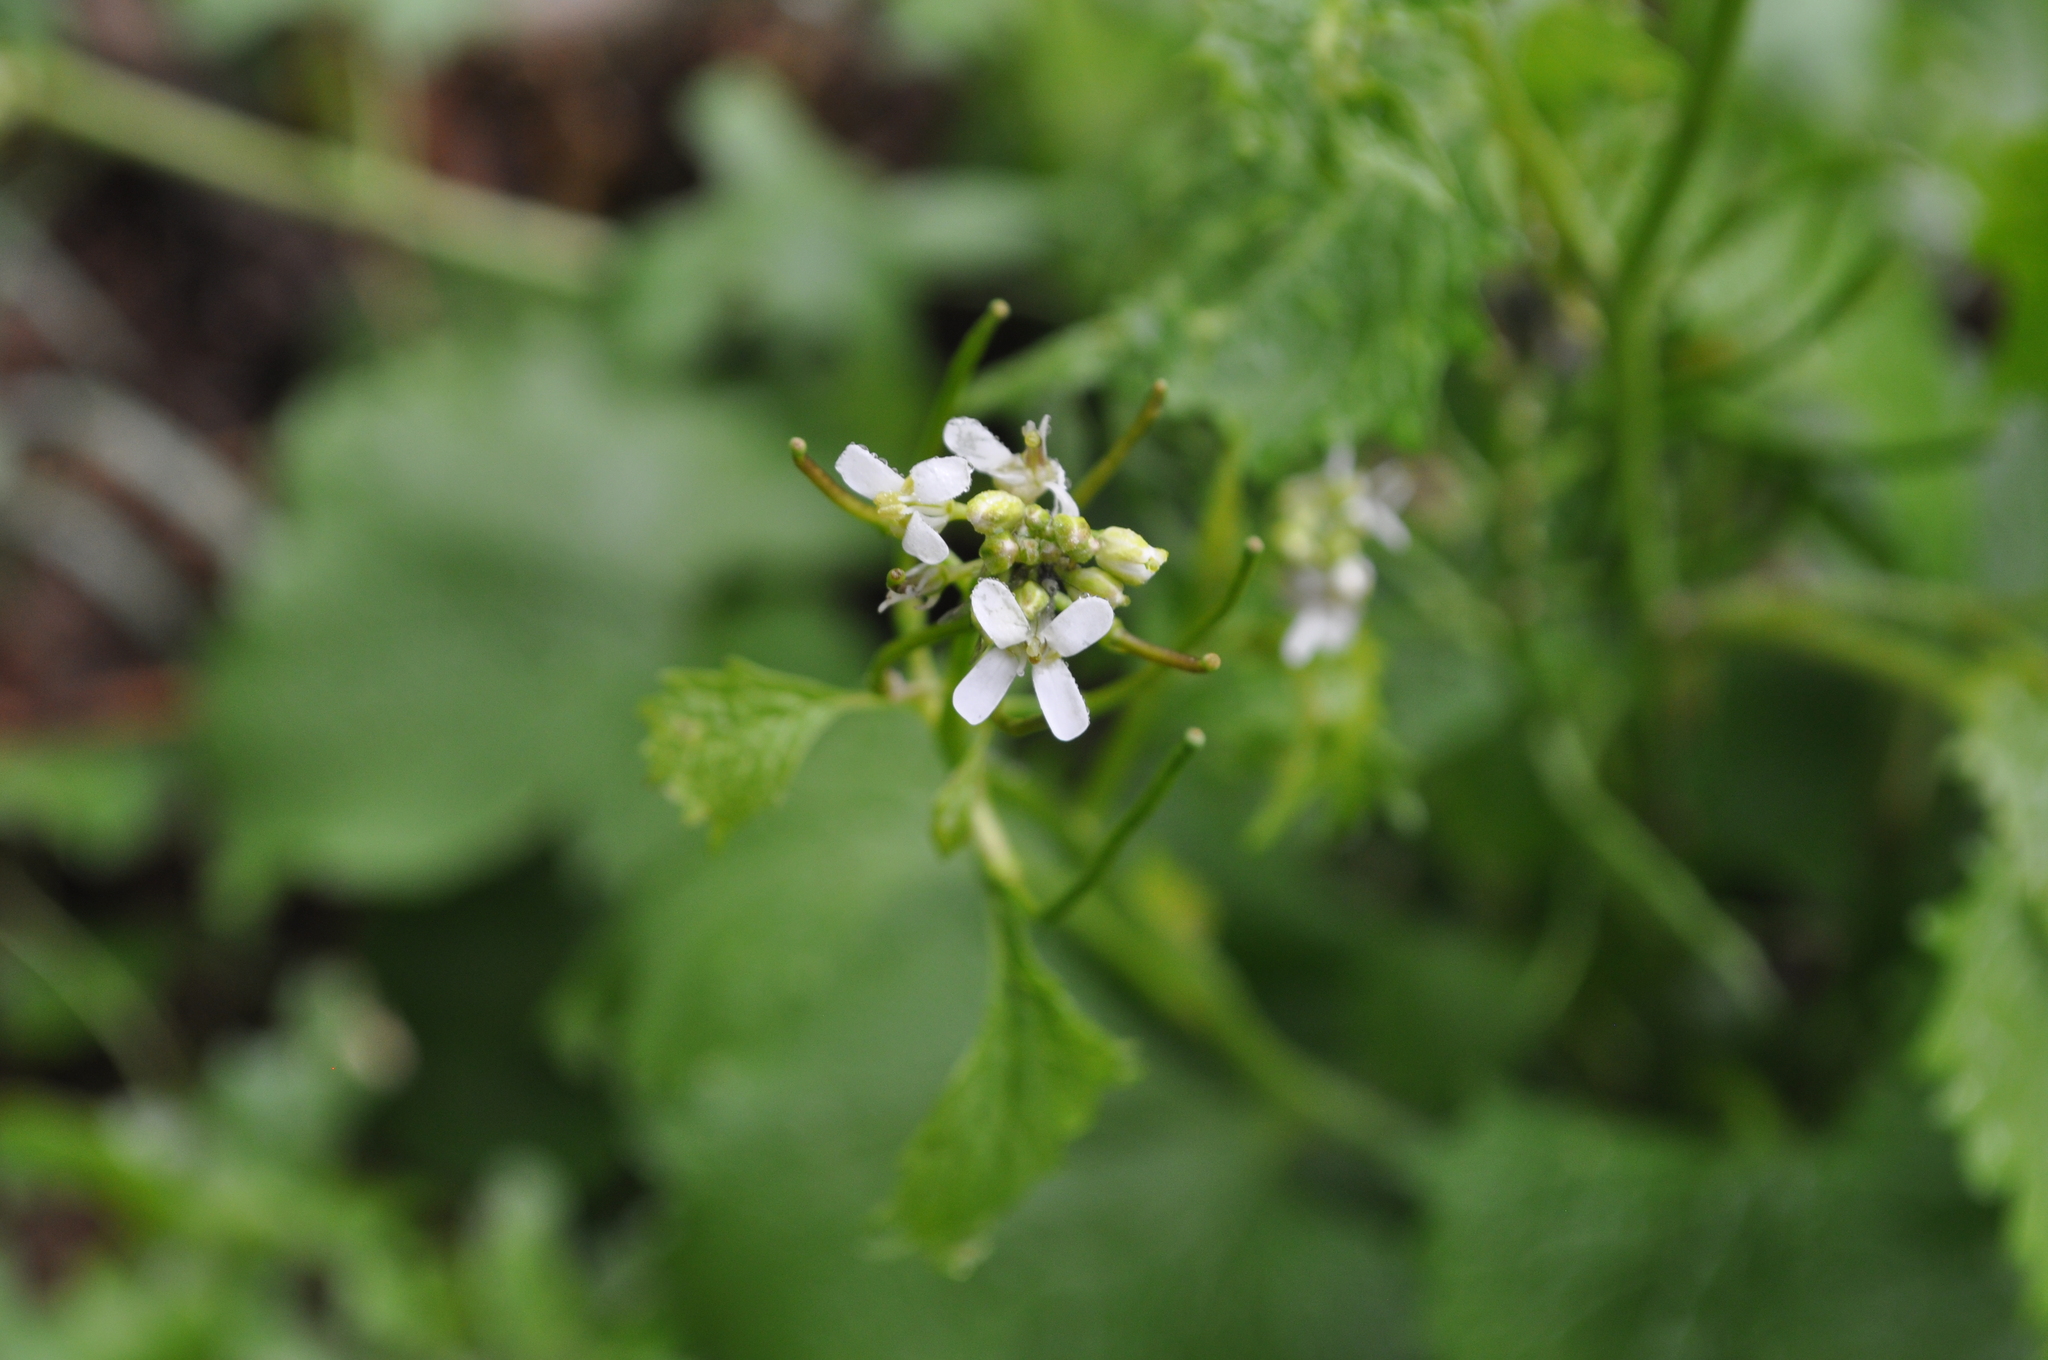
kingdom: Plantae
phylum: Tracheophyta
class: Magnoliopsida
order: Brassicales
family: Brassicaceae
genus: Alliaria
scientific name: Alliaria petiolata
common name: Garlic mustard
